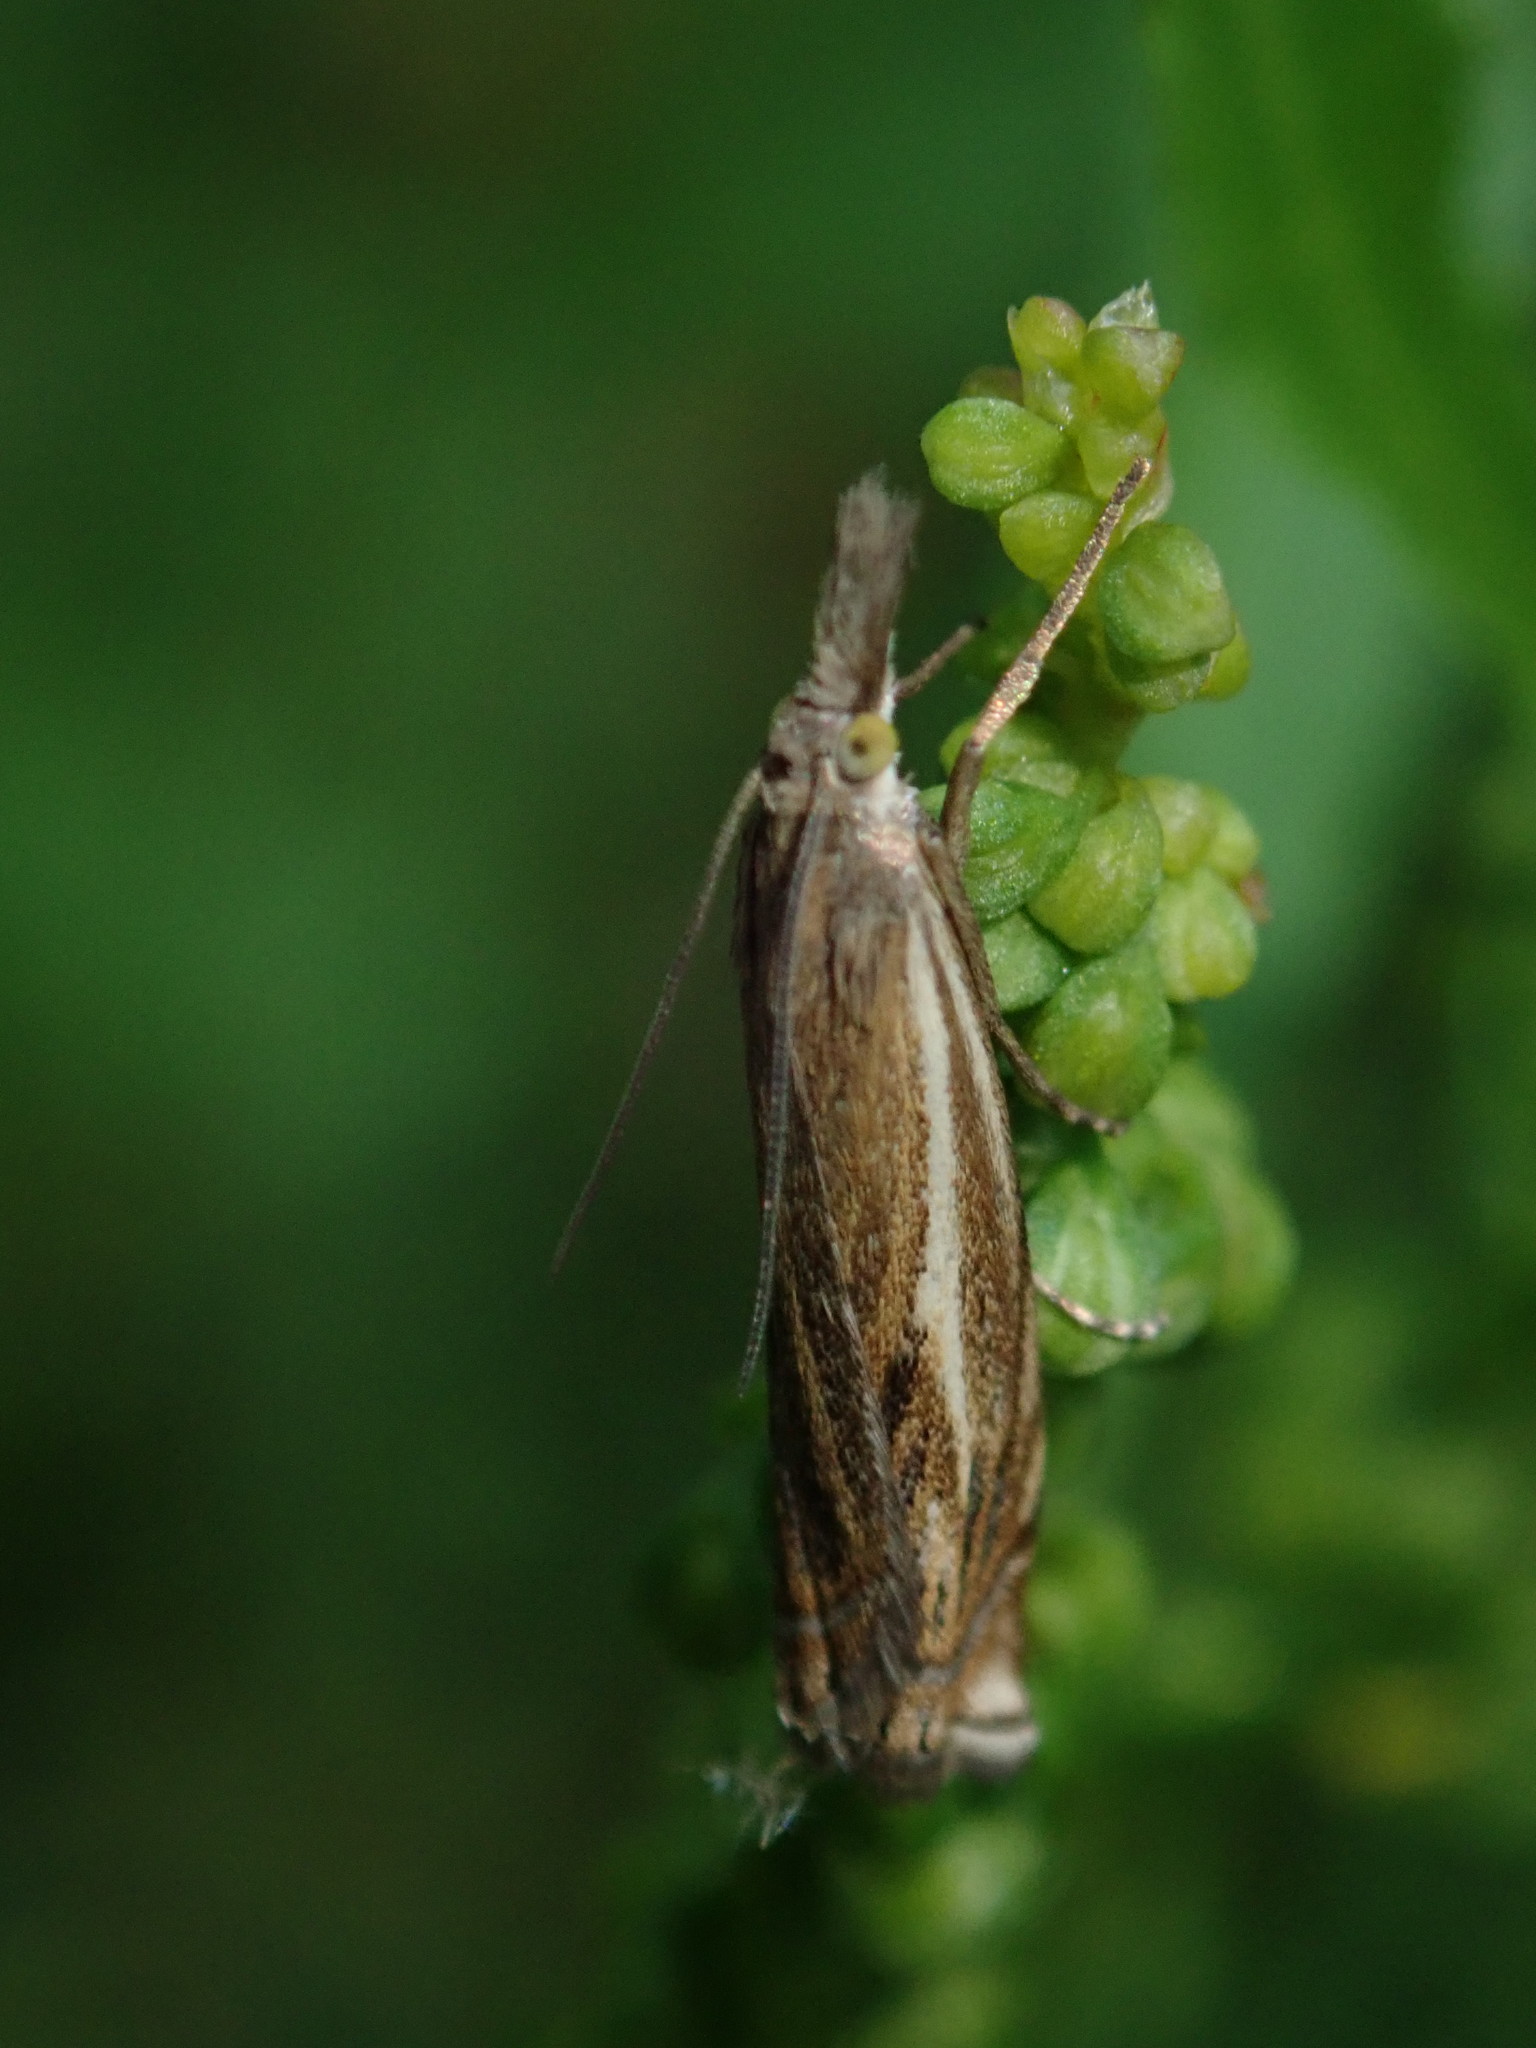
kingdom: Animalia
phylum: Arthropoda
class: Insecta
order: Lepidoptera
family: Crambidae
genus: Crambus
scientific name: Crambus nemorella
